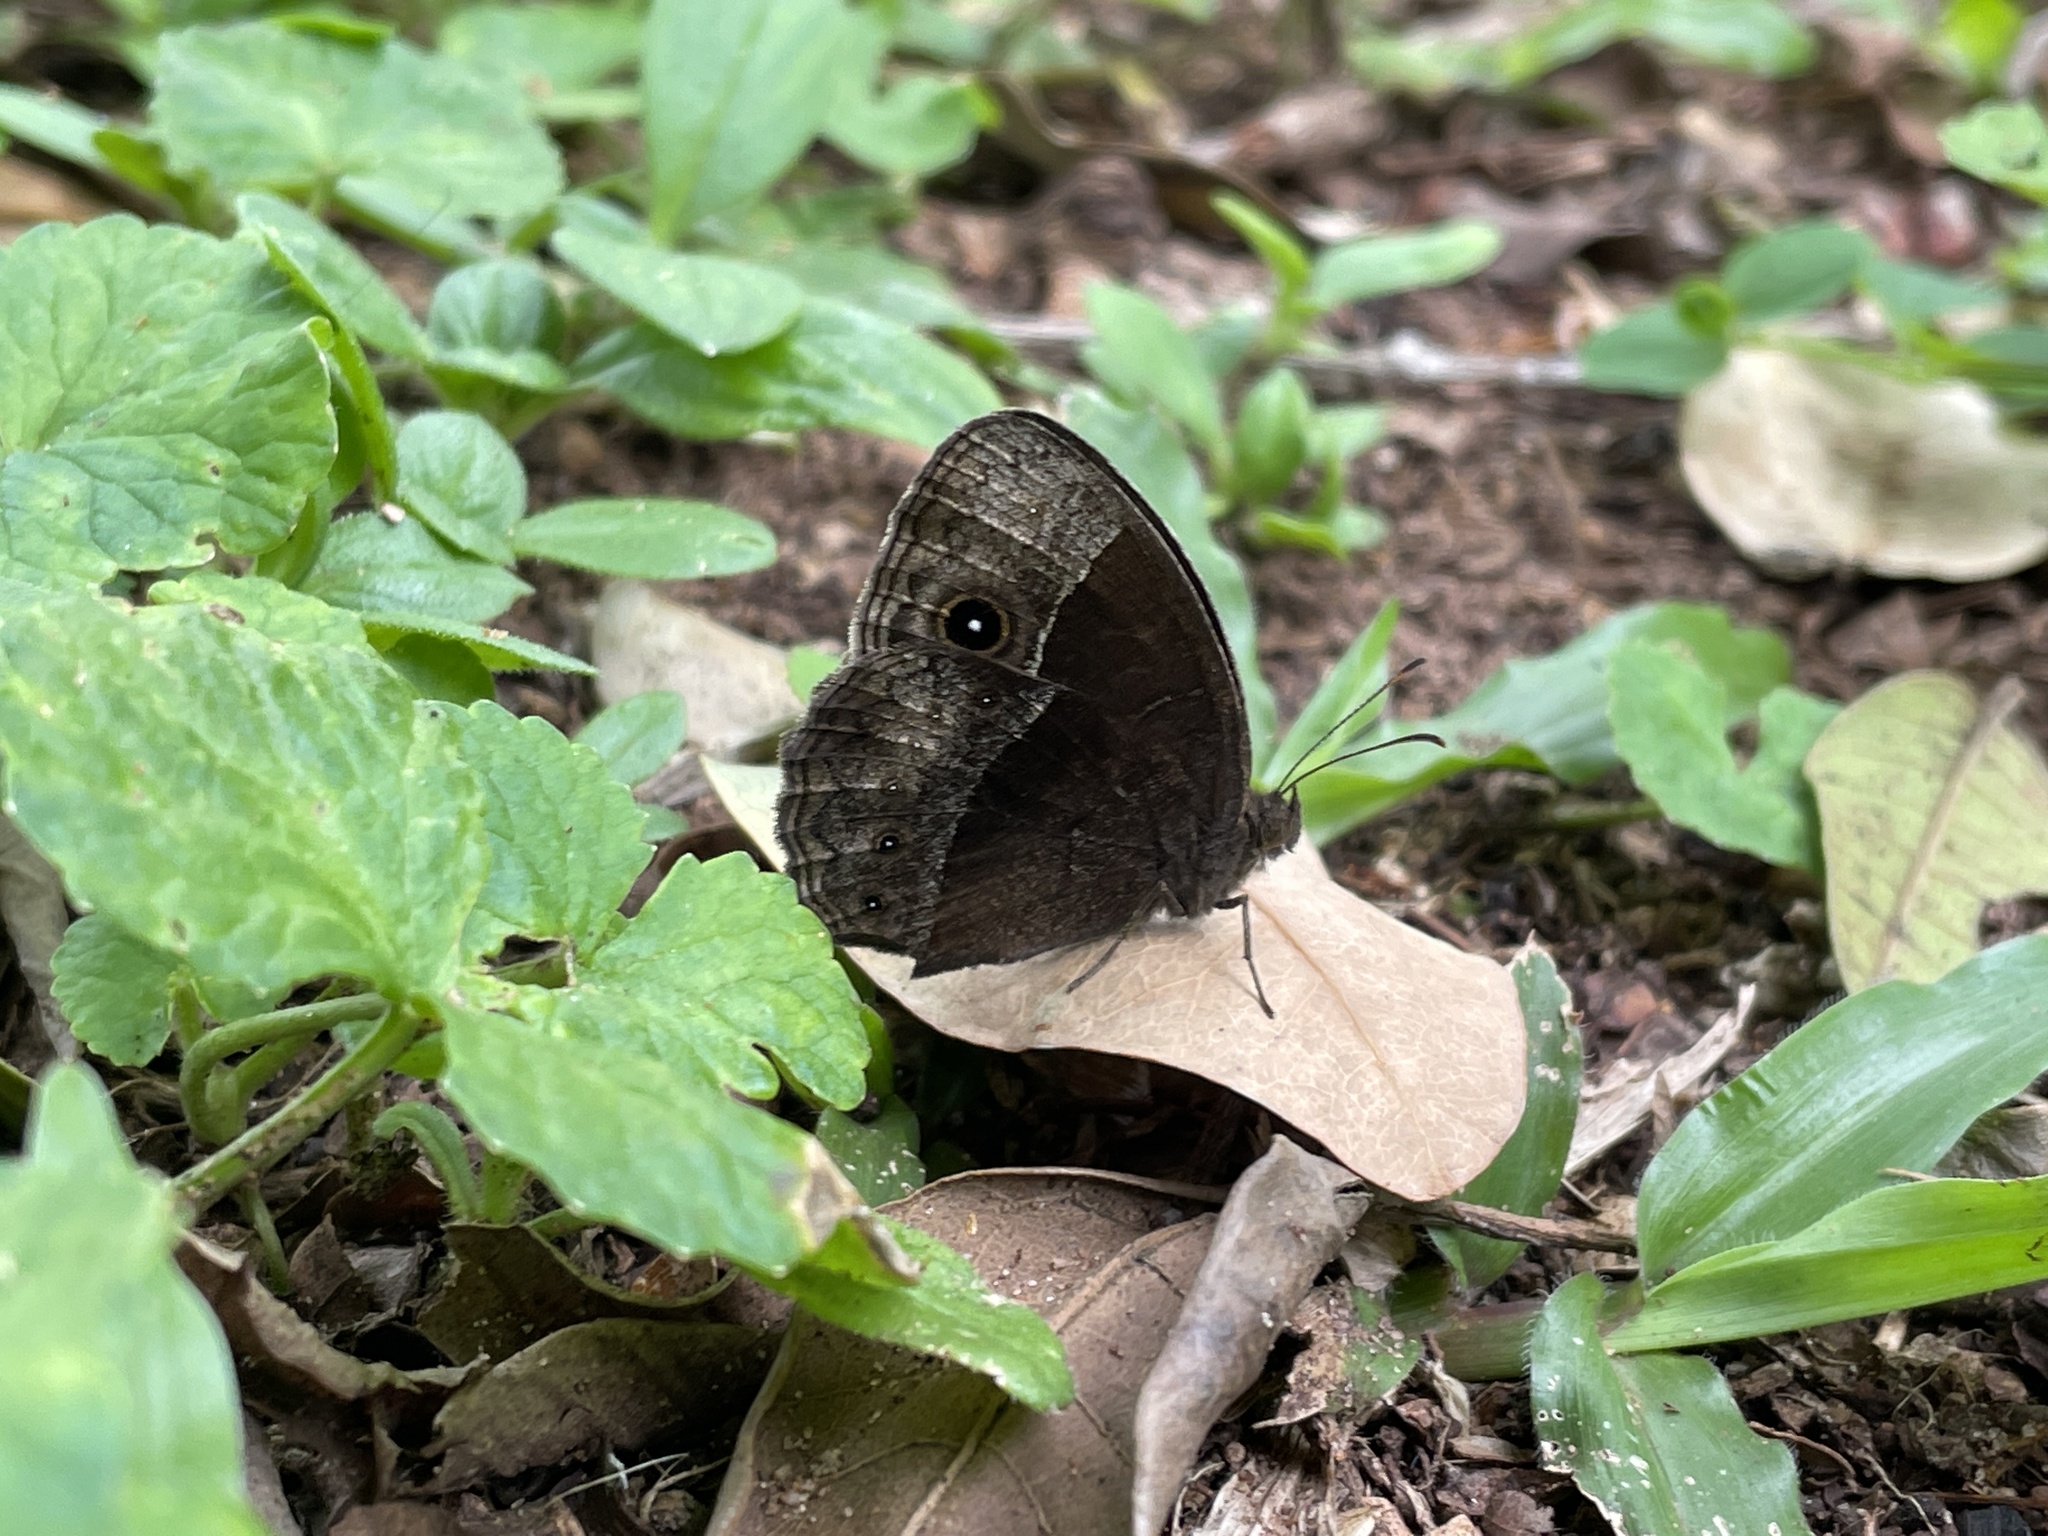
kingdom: Animalia
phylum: Arthropoda
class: Insecta
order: Lepidoptera
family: Nymphalidae
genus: Mycalesis
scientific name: Mycalesis rhacotis
